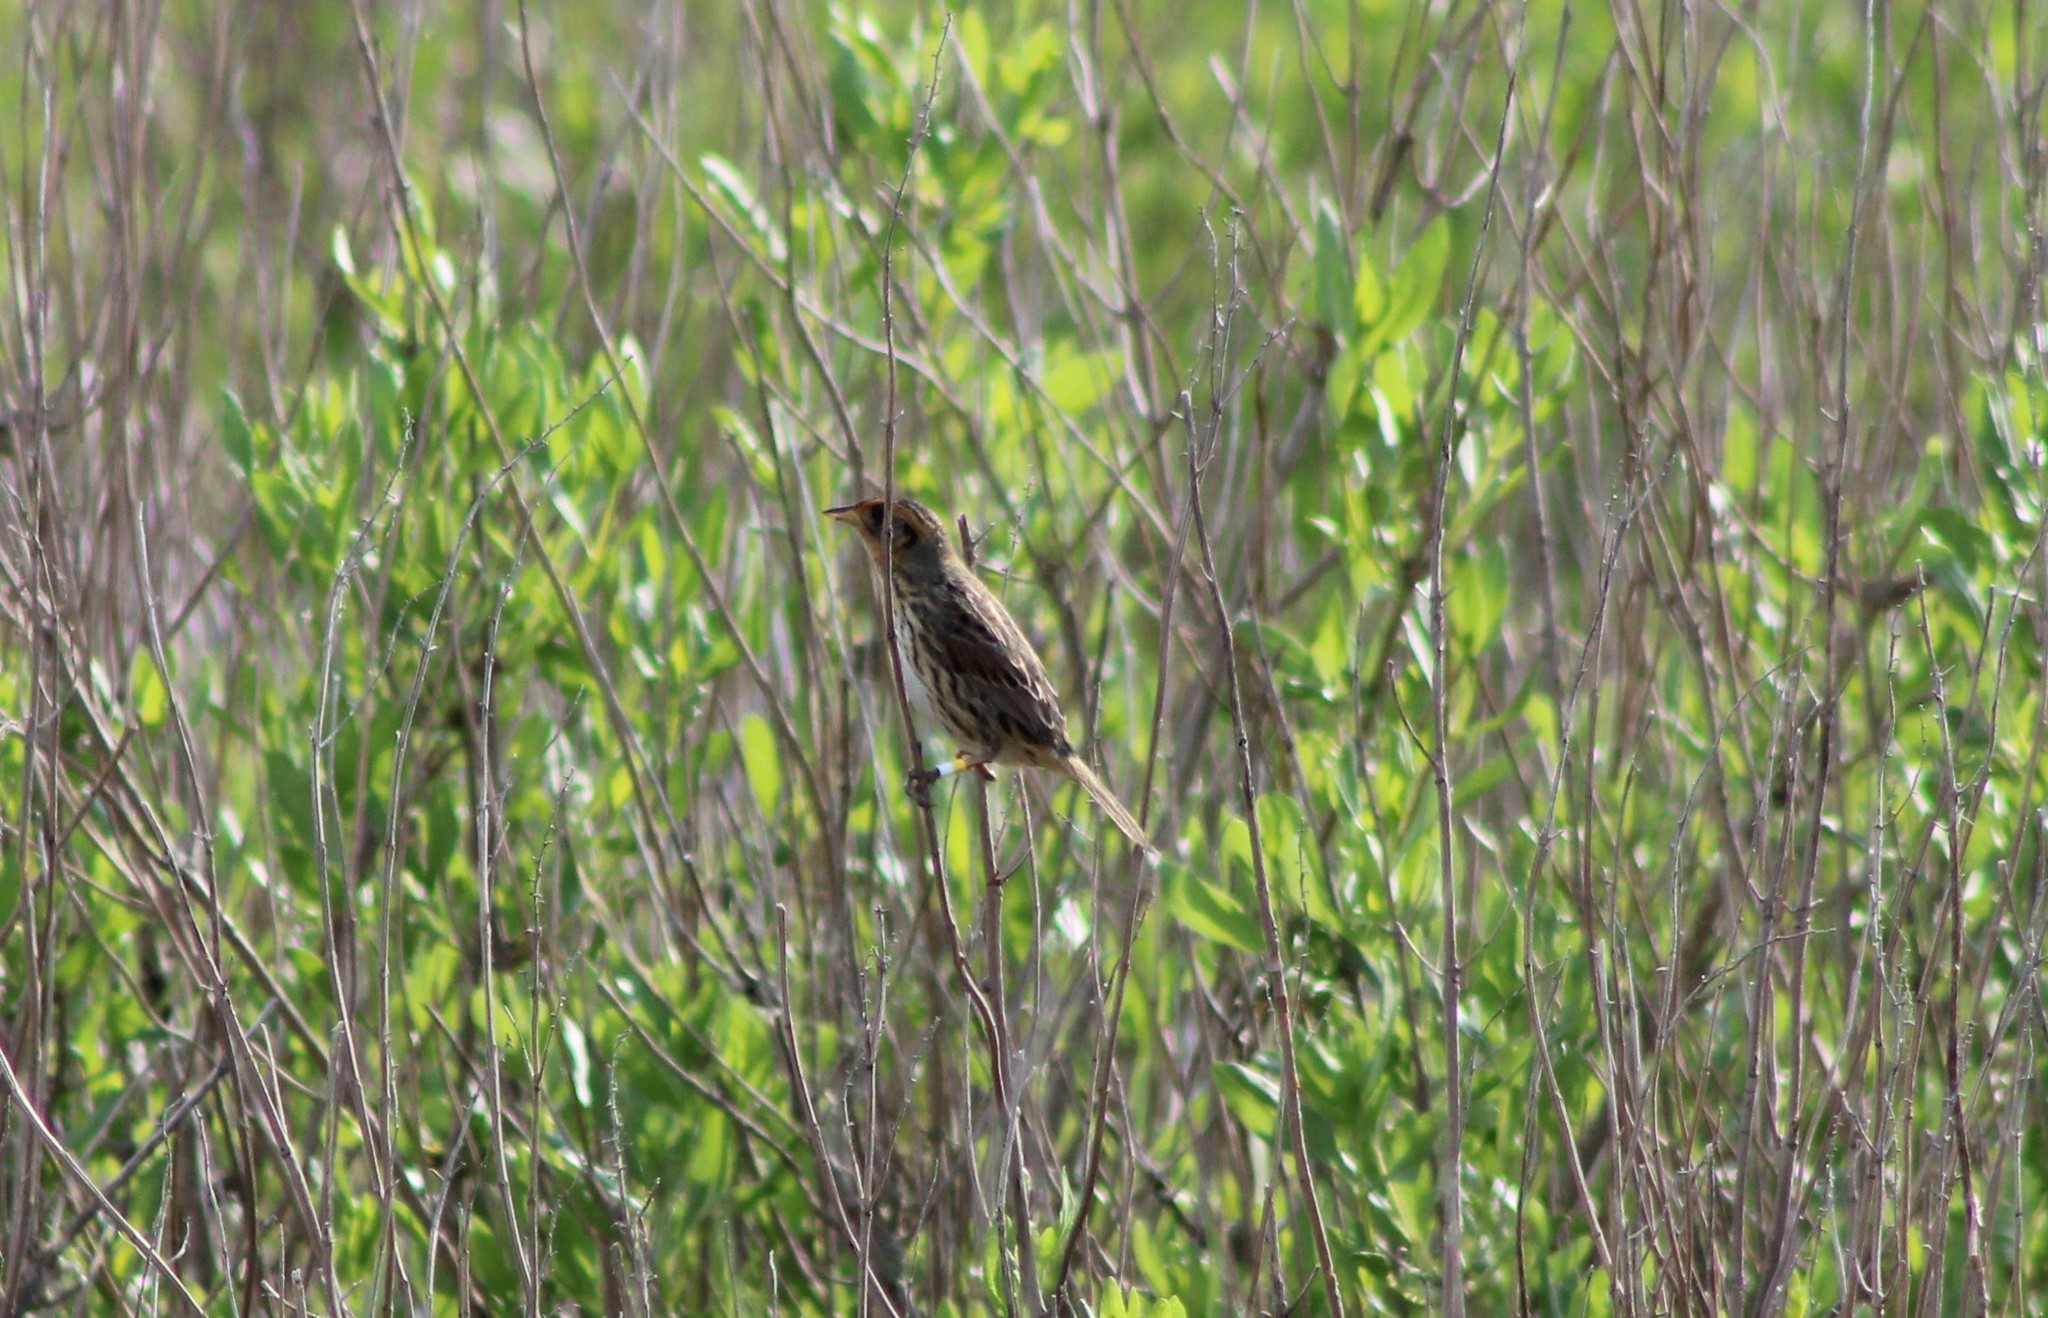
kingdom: Animalia
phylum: Chordata
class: Aves
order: Passeriformes
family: Passerellidae
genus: Ammospiza
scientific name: Ammospiza caudacuta
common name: Saltmarsh sparrow
